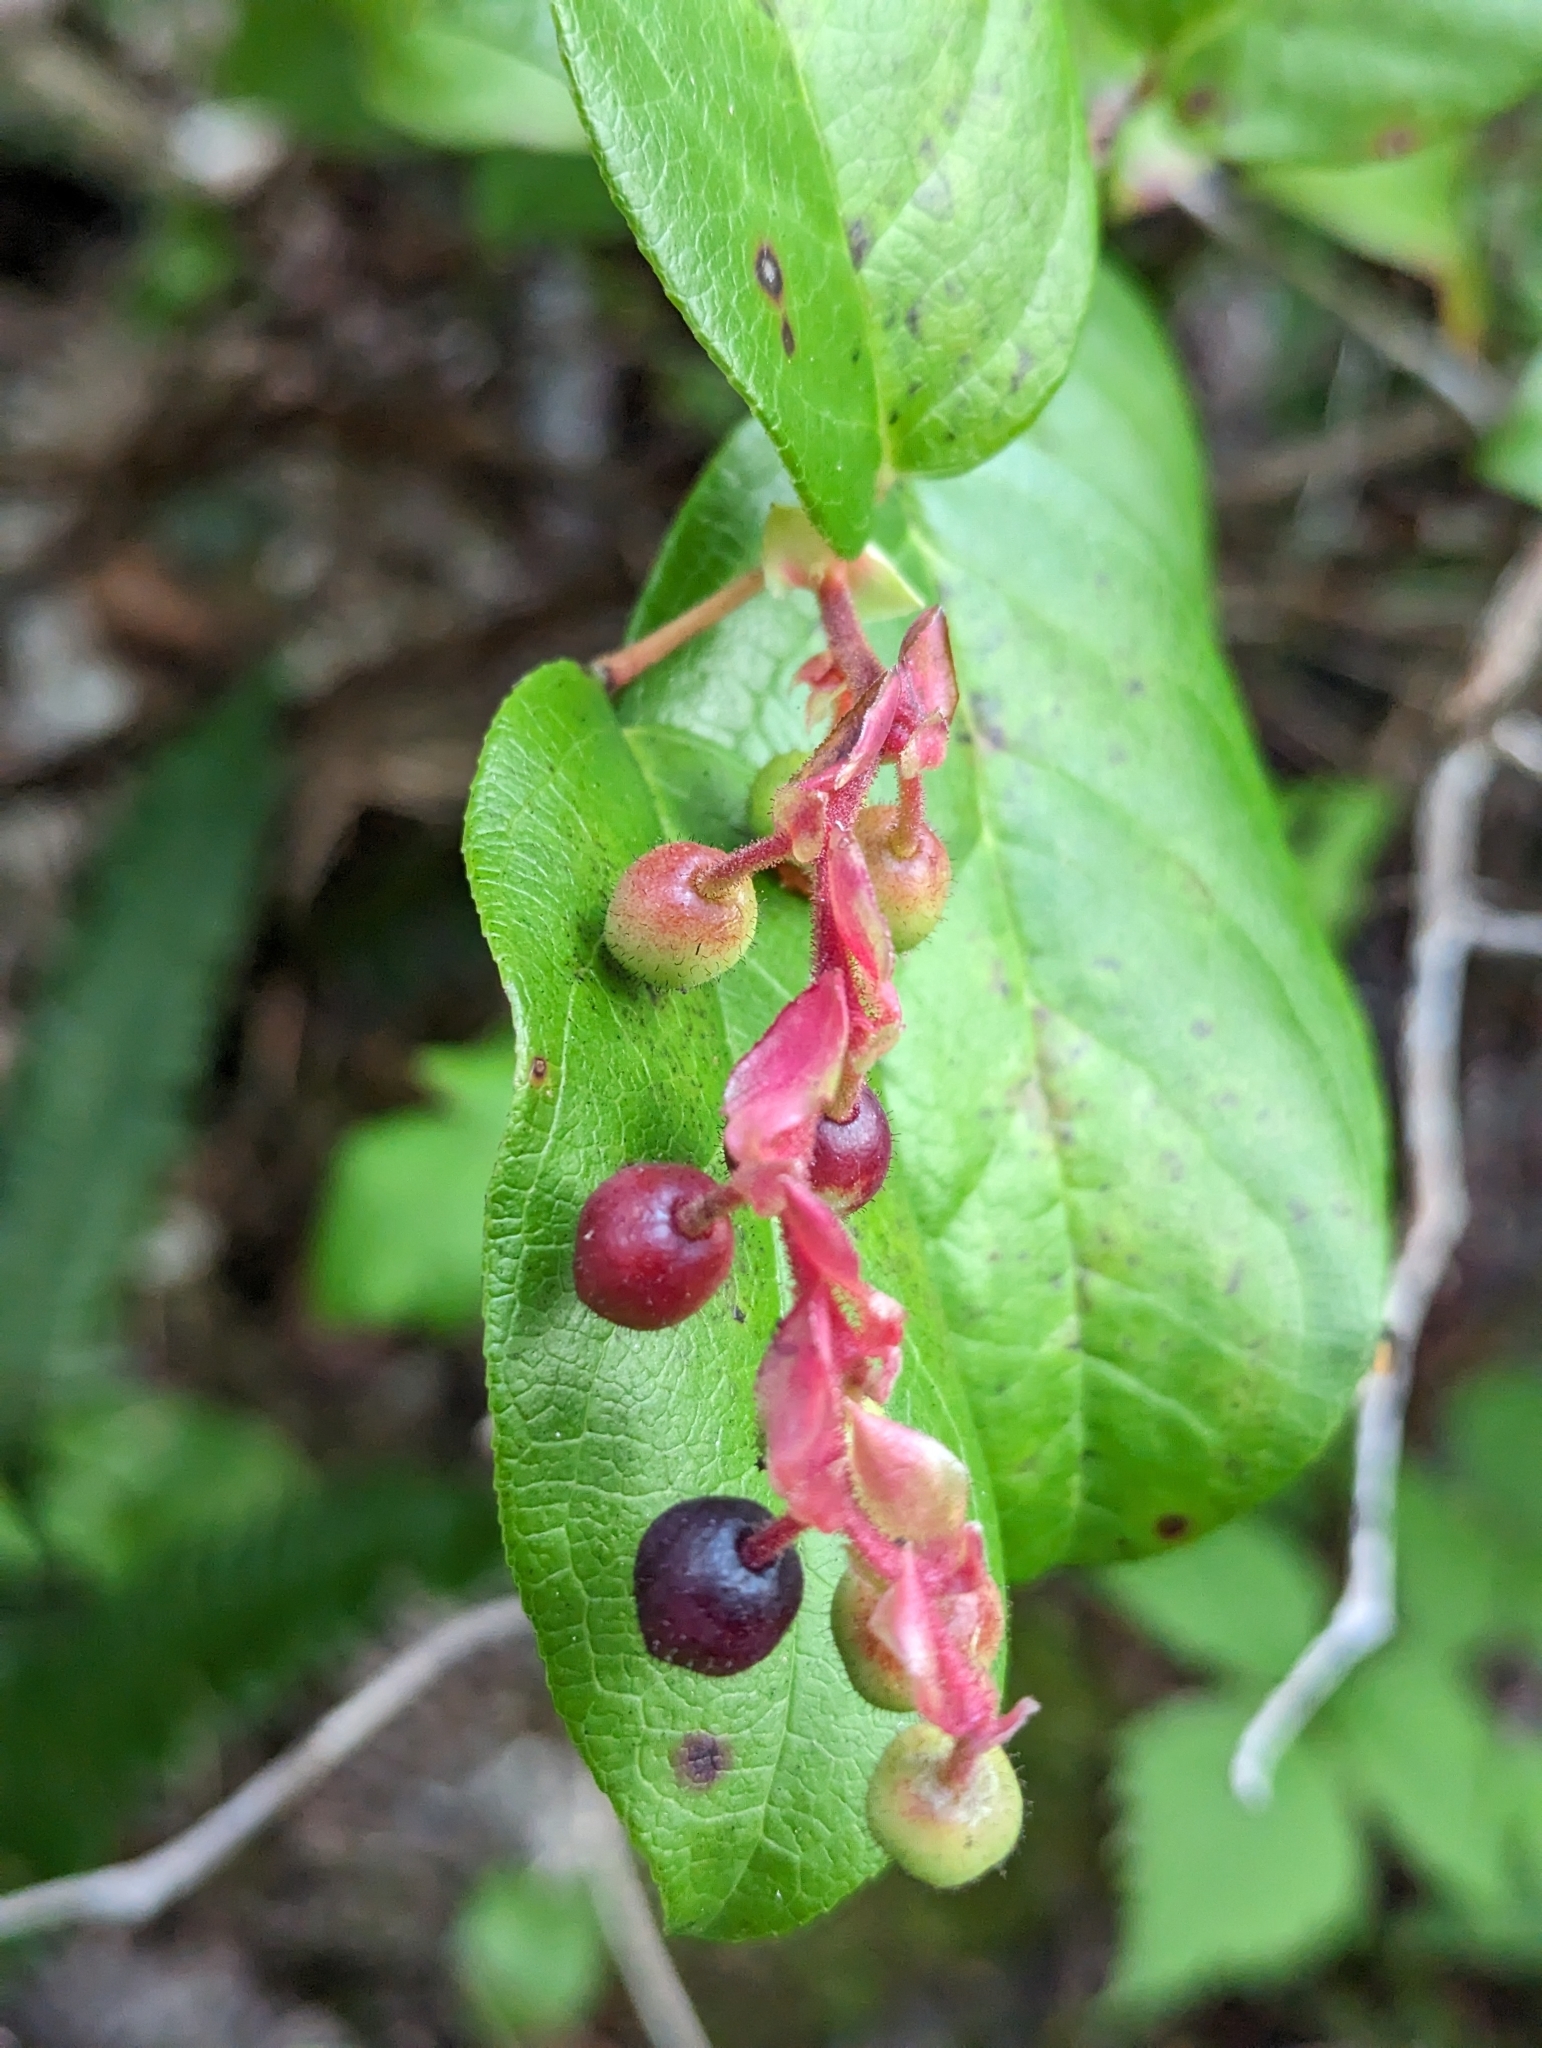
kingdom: Plantae
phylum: Tracheophyta
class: Magnoliopsida
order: Ericales
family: Ericaceae
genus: Gaultheria
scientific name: Gaultheria shallon
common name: Shallon
